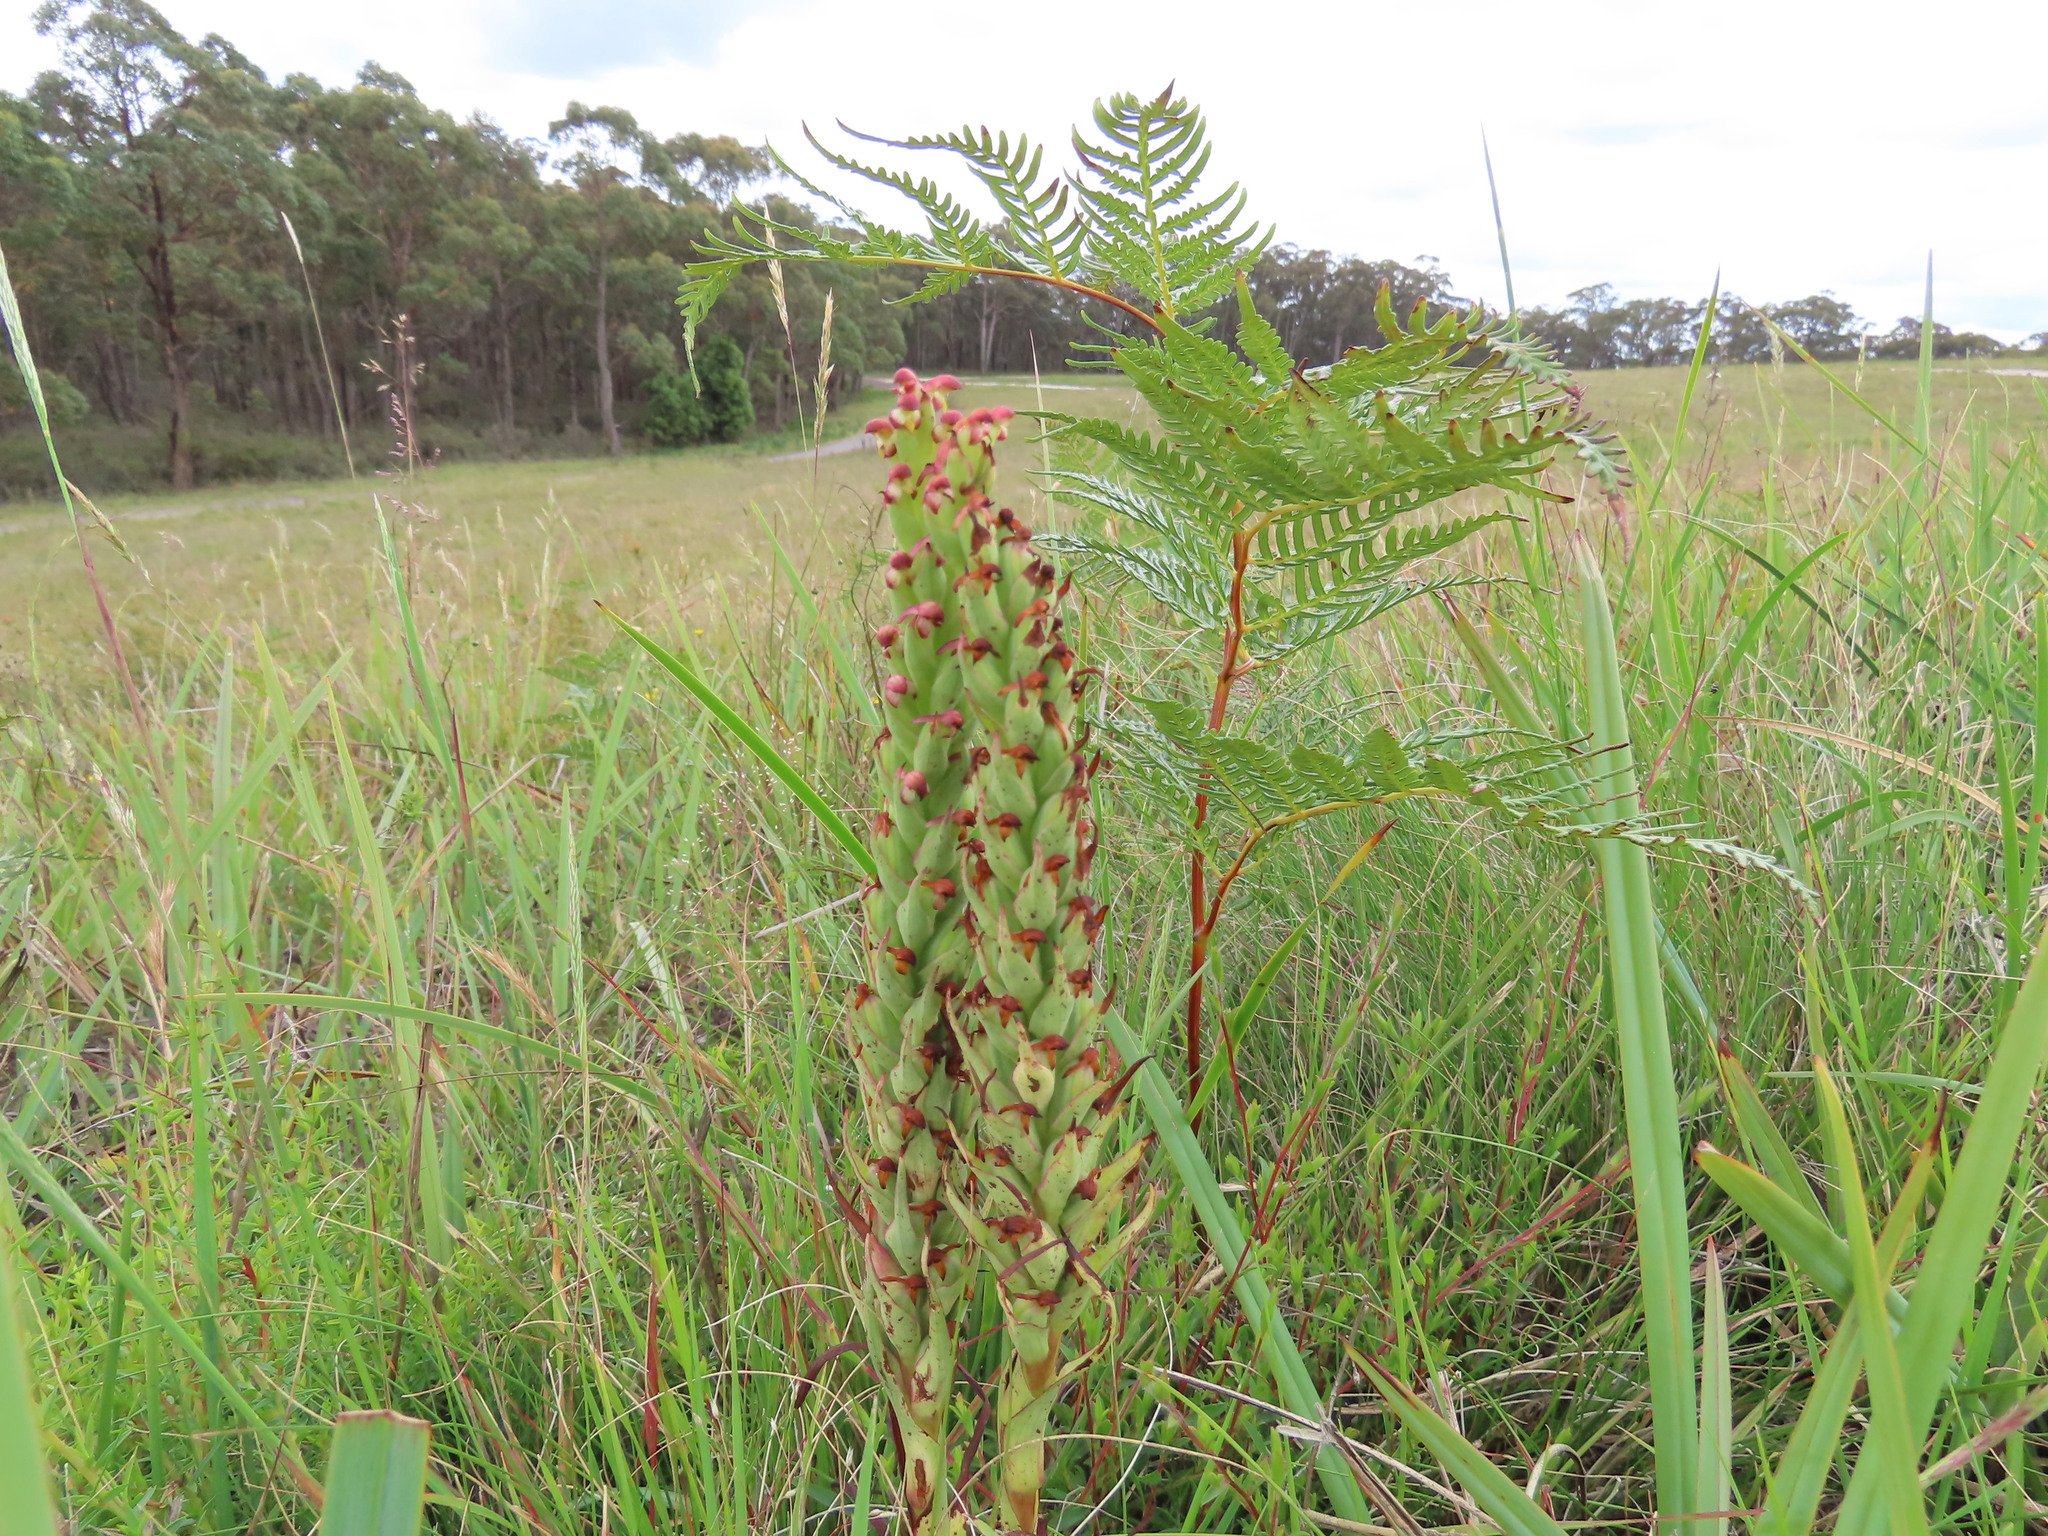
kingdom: Plantae
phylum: Tracheophyta
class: Liliopsida
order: Asparagales
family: Orchidaceae
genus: Disa
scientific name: Disa bracteata
